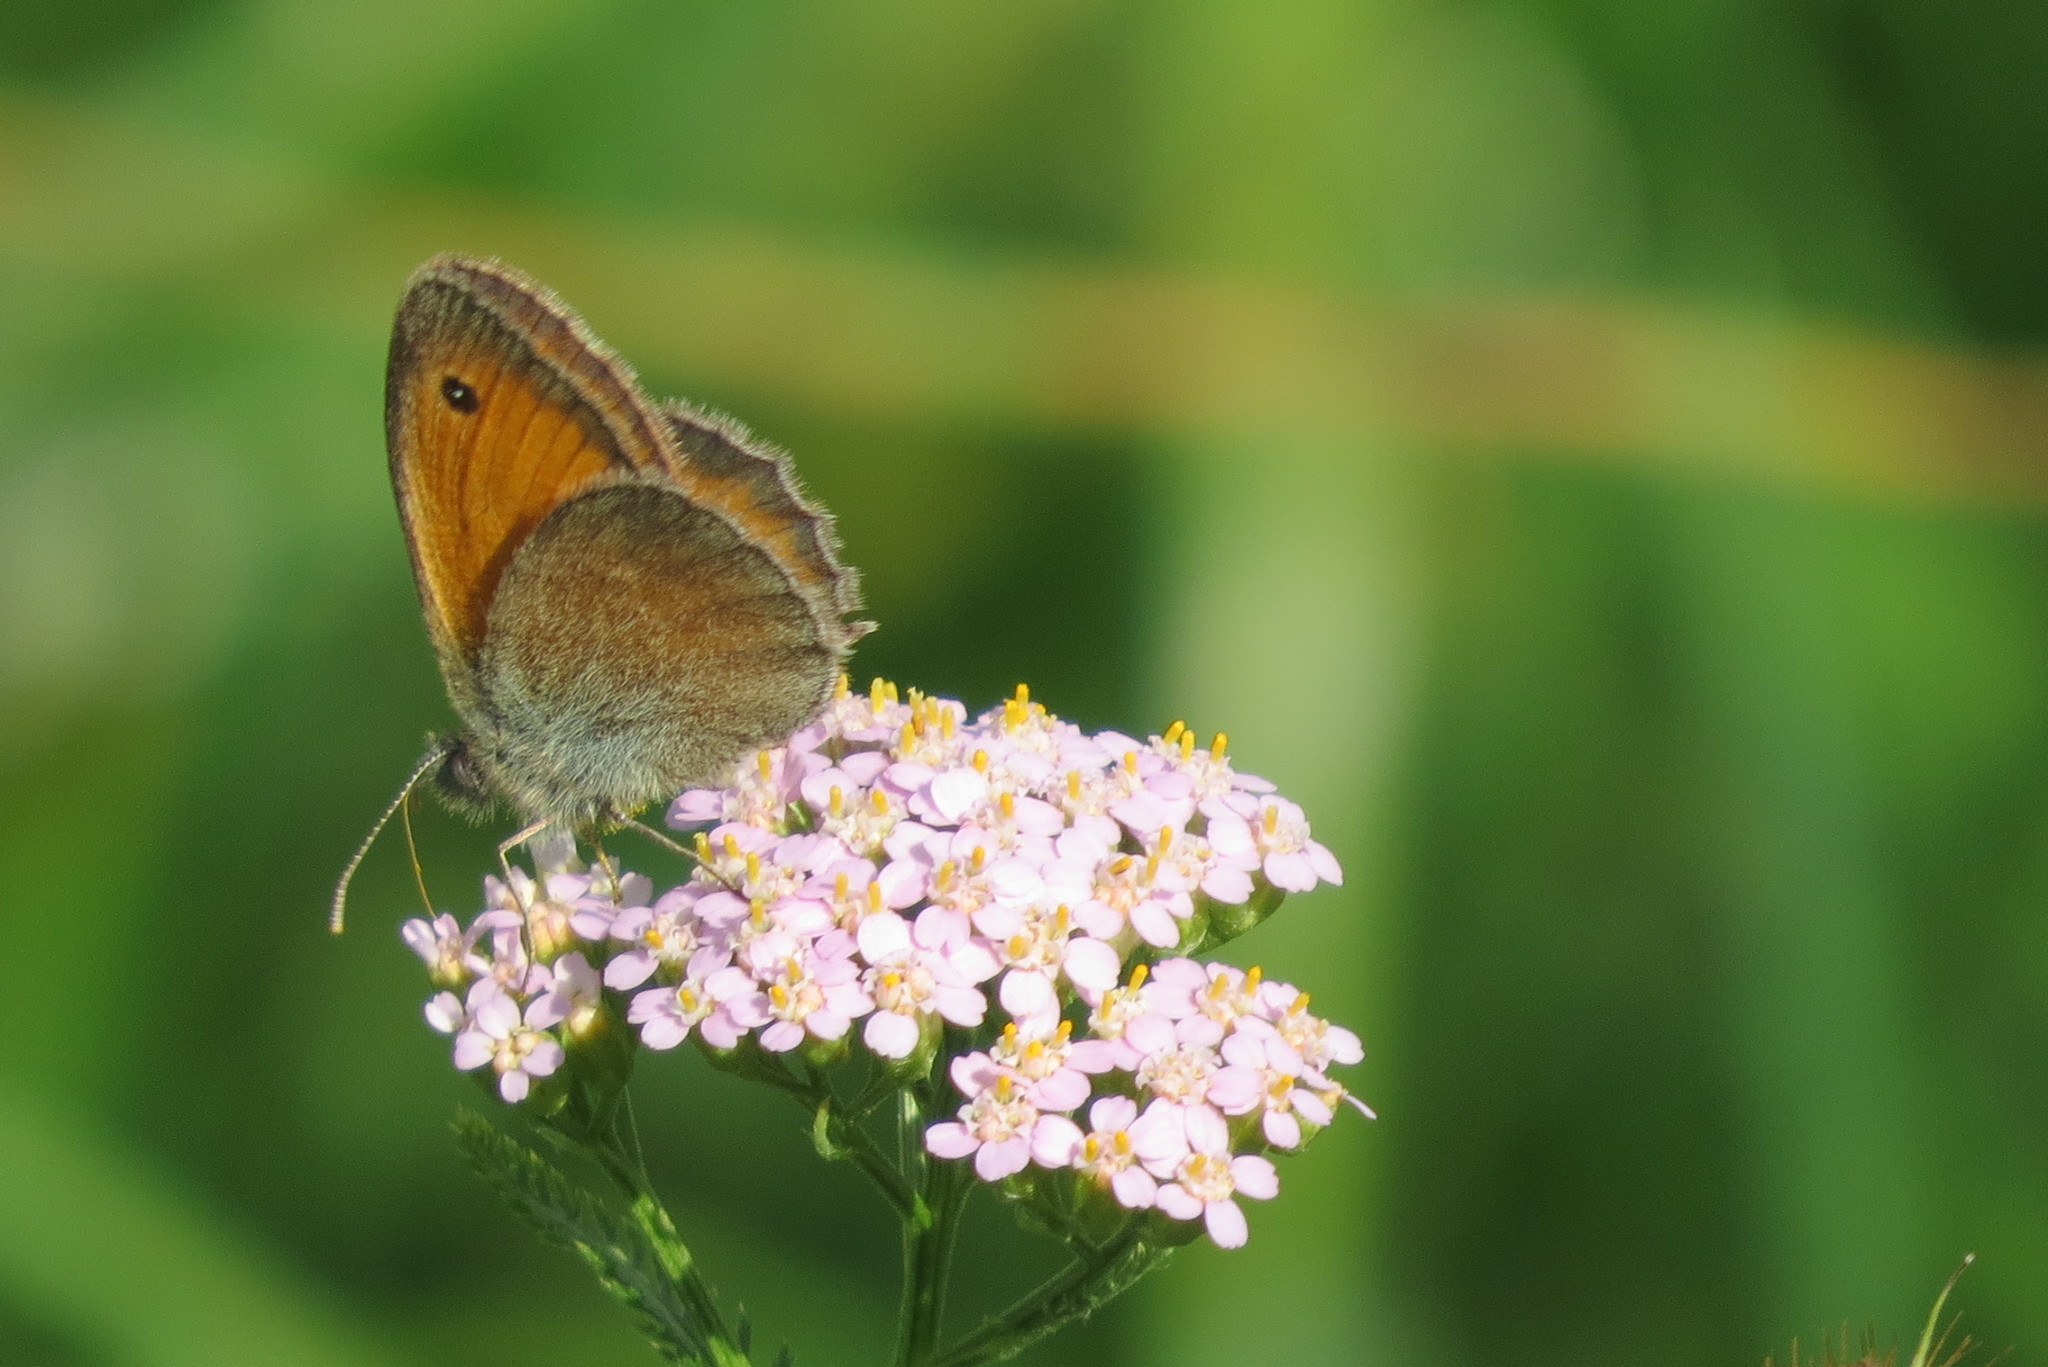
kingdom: Animalia
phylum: Arthropoda
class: Insecta
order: Lepidoptera
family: Nymphalidae
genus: Coenonympha
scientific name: Coenonympha pamphilus
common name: Small heath
